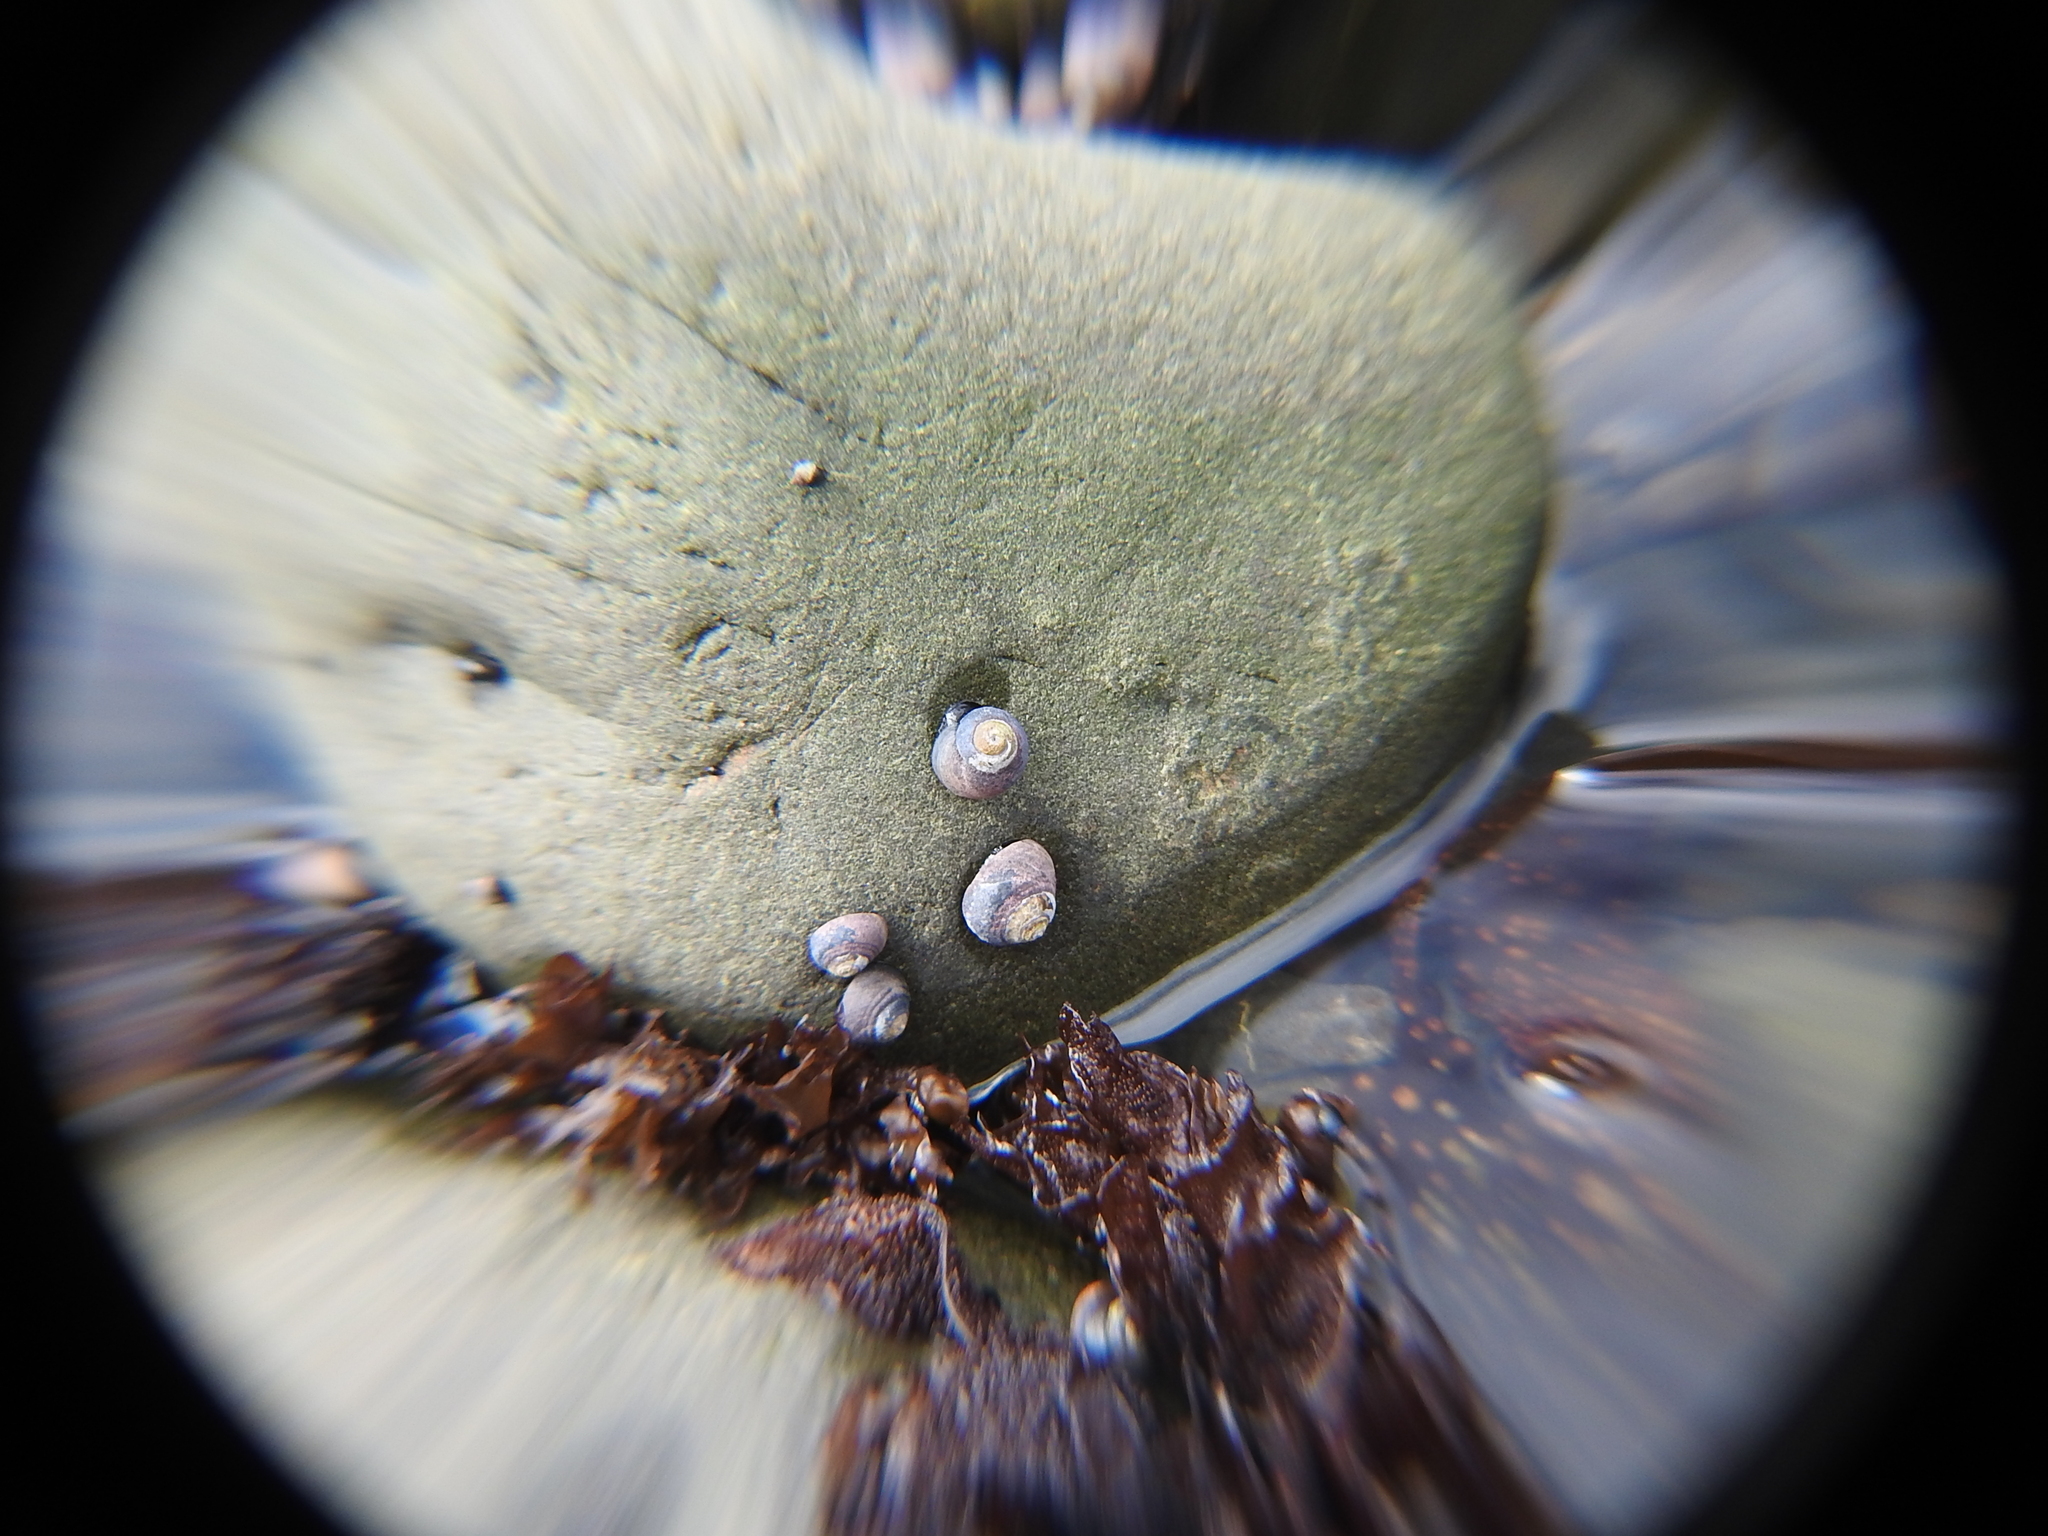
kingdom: Animalia
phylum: Mollusca
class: Gastropoda
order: Trochida
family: Tegulidae
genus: Tegula
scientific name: Tegula funebralis
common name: Black tegula
